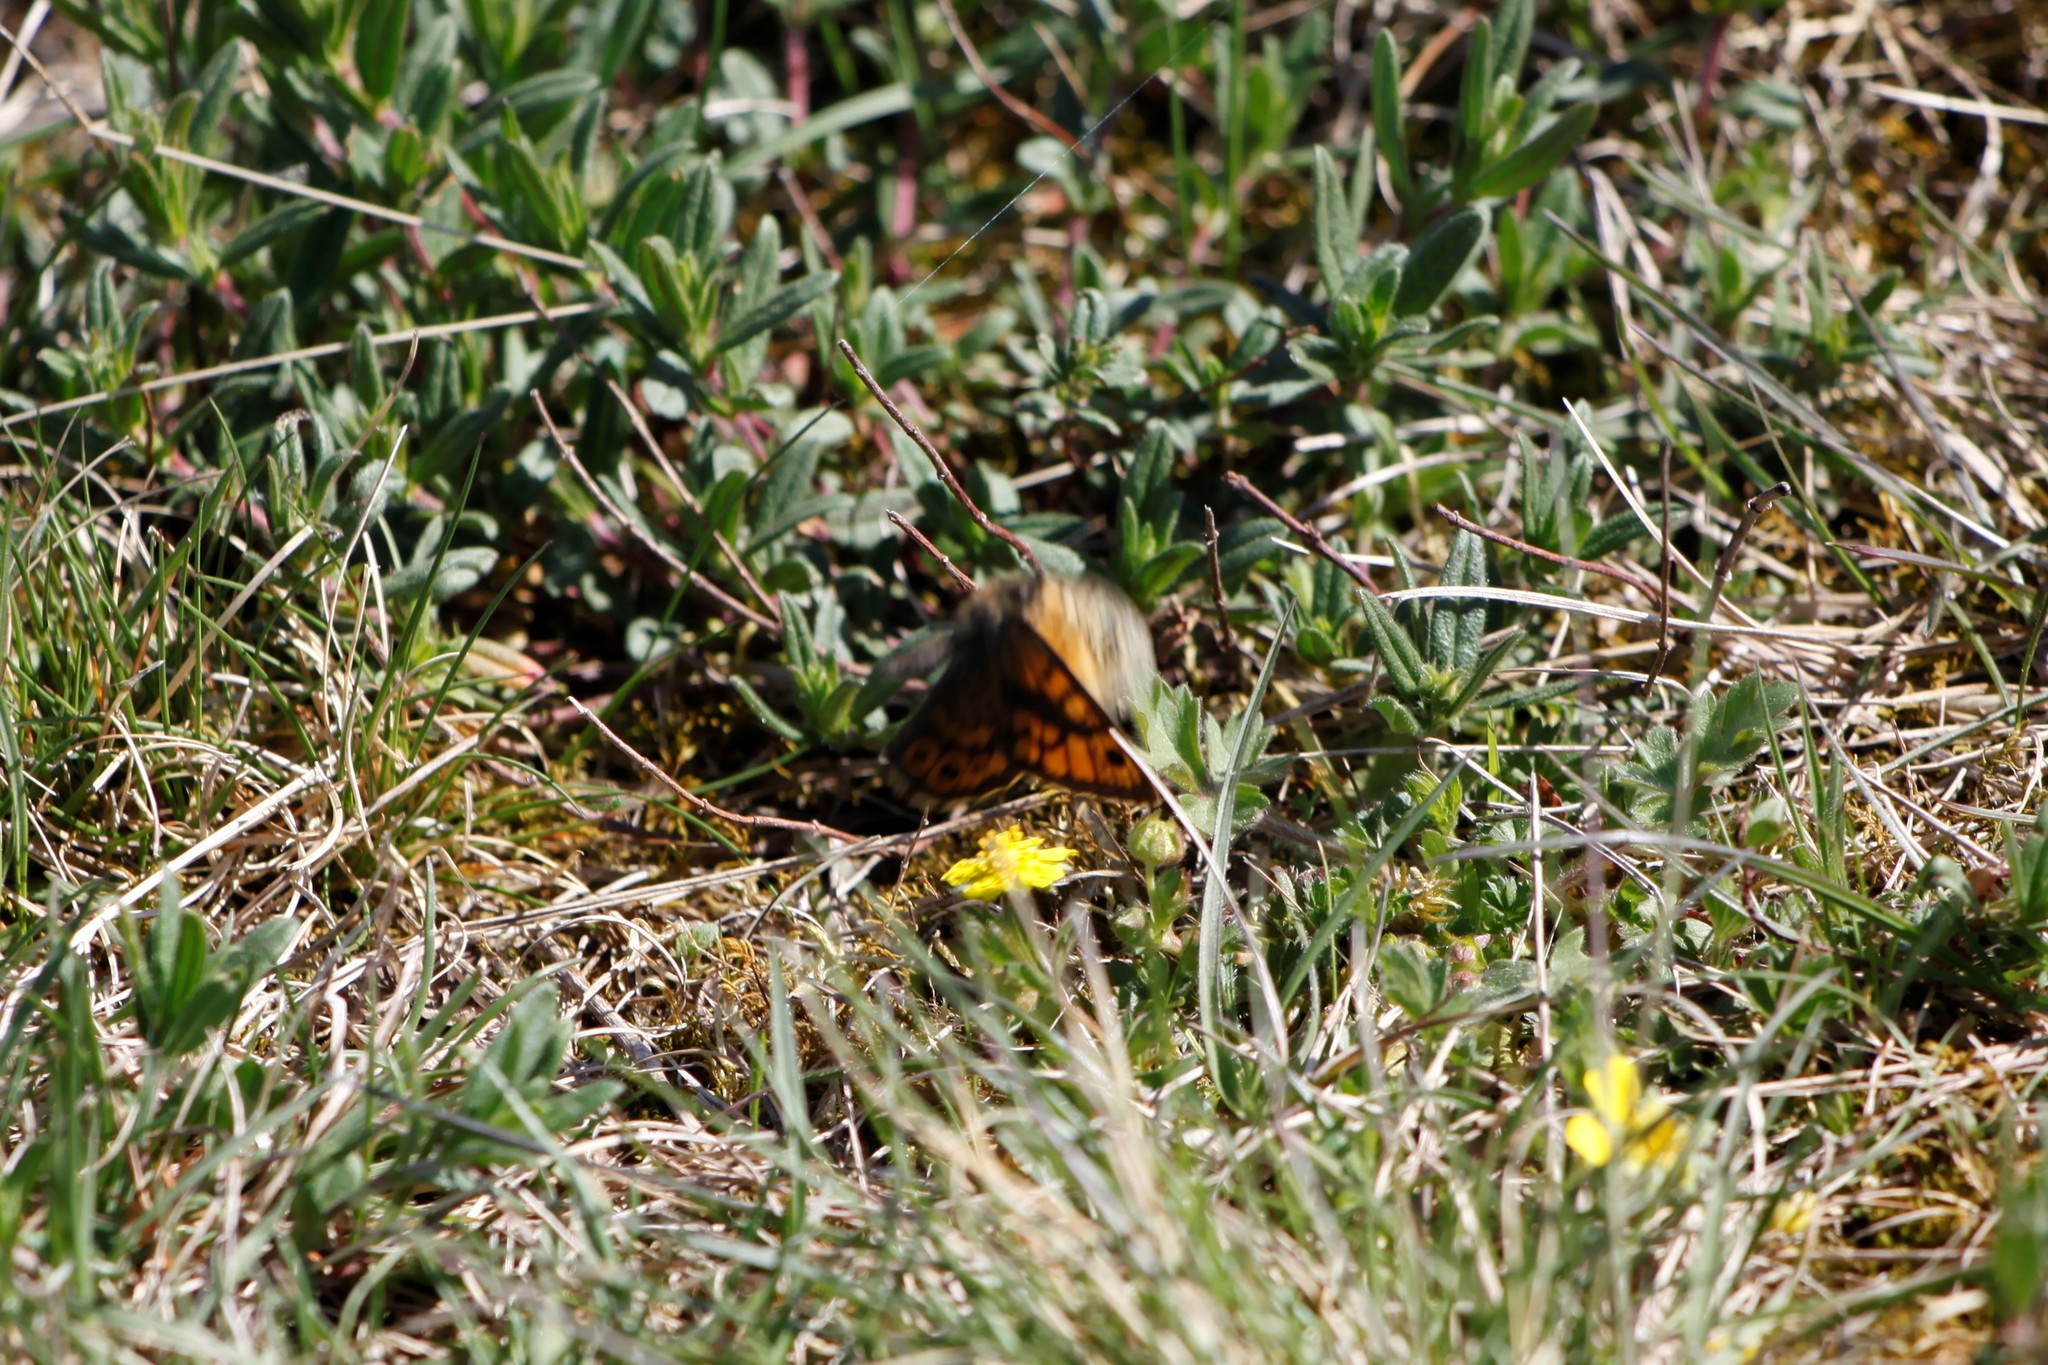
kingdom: Animalia
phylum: Arthropoda
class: Insecta
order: Lepidoptera
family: Nymphalidae
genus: Pararge
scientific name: Pararge Lasiommata megera
